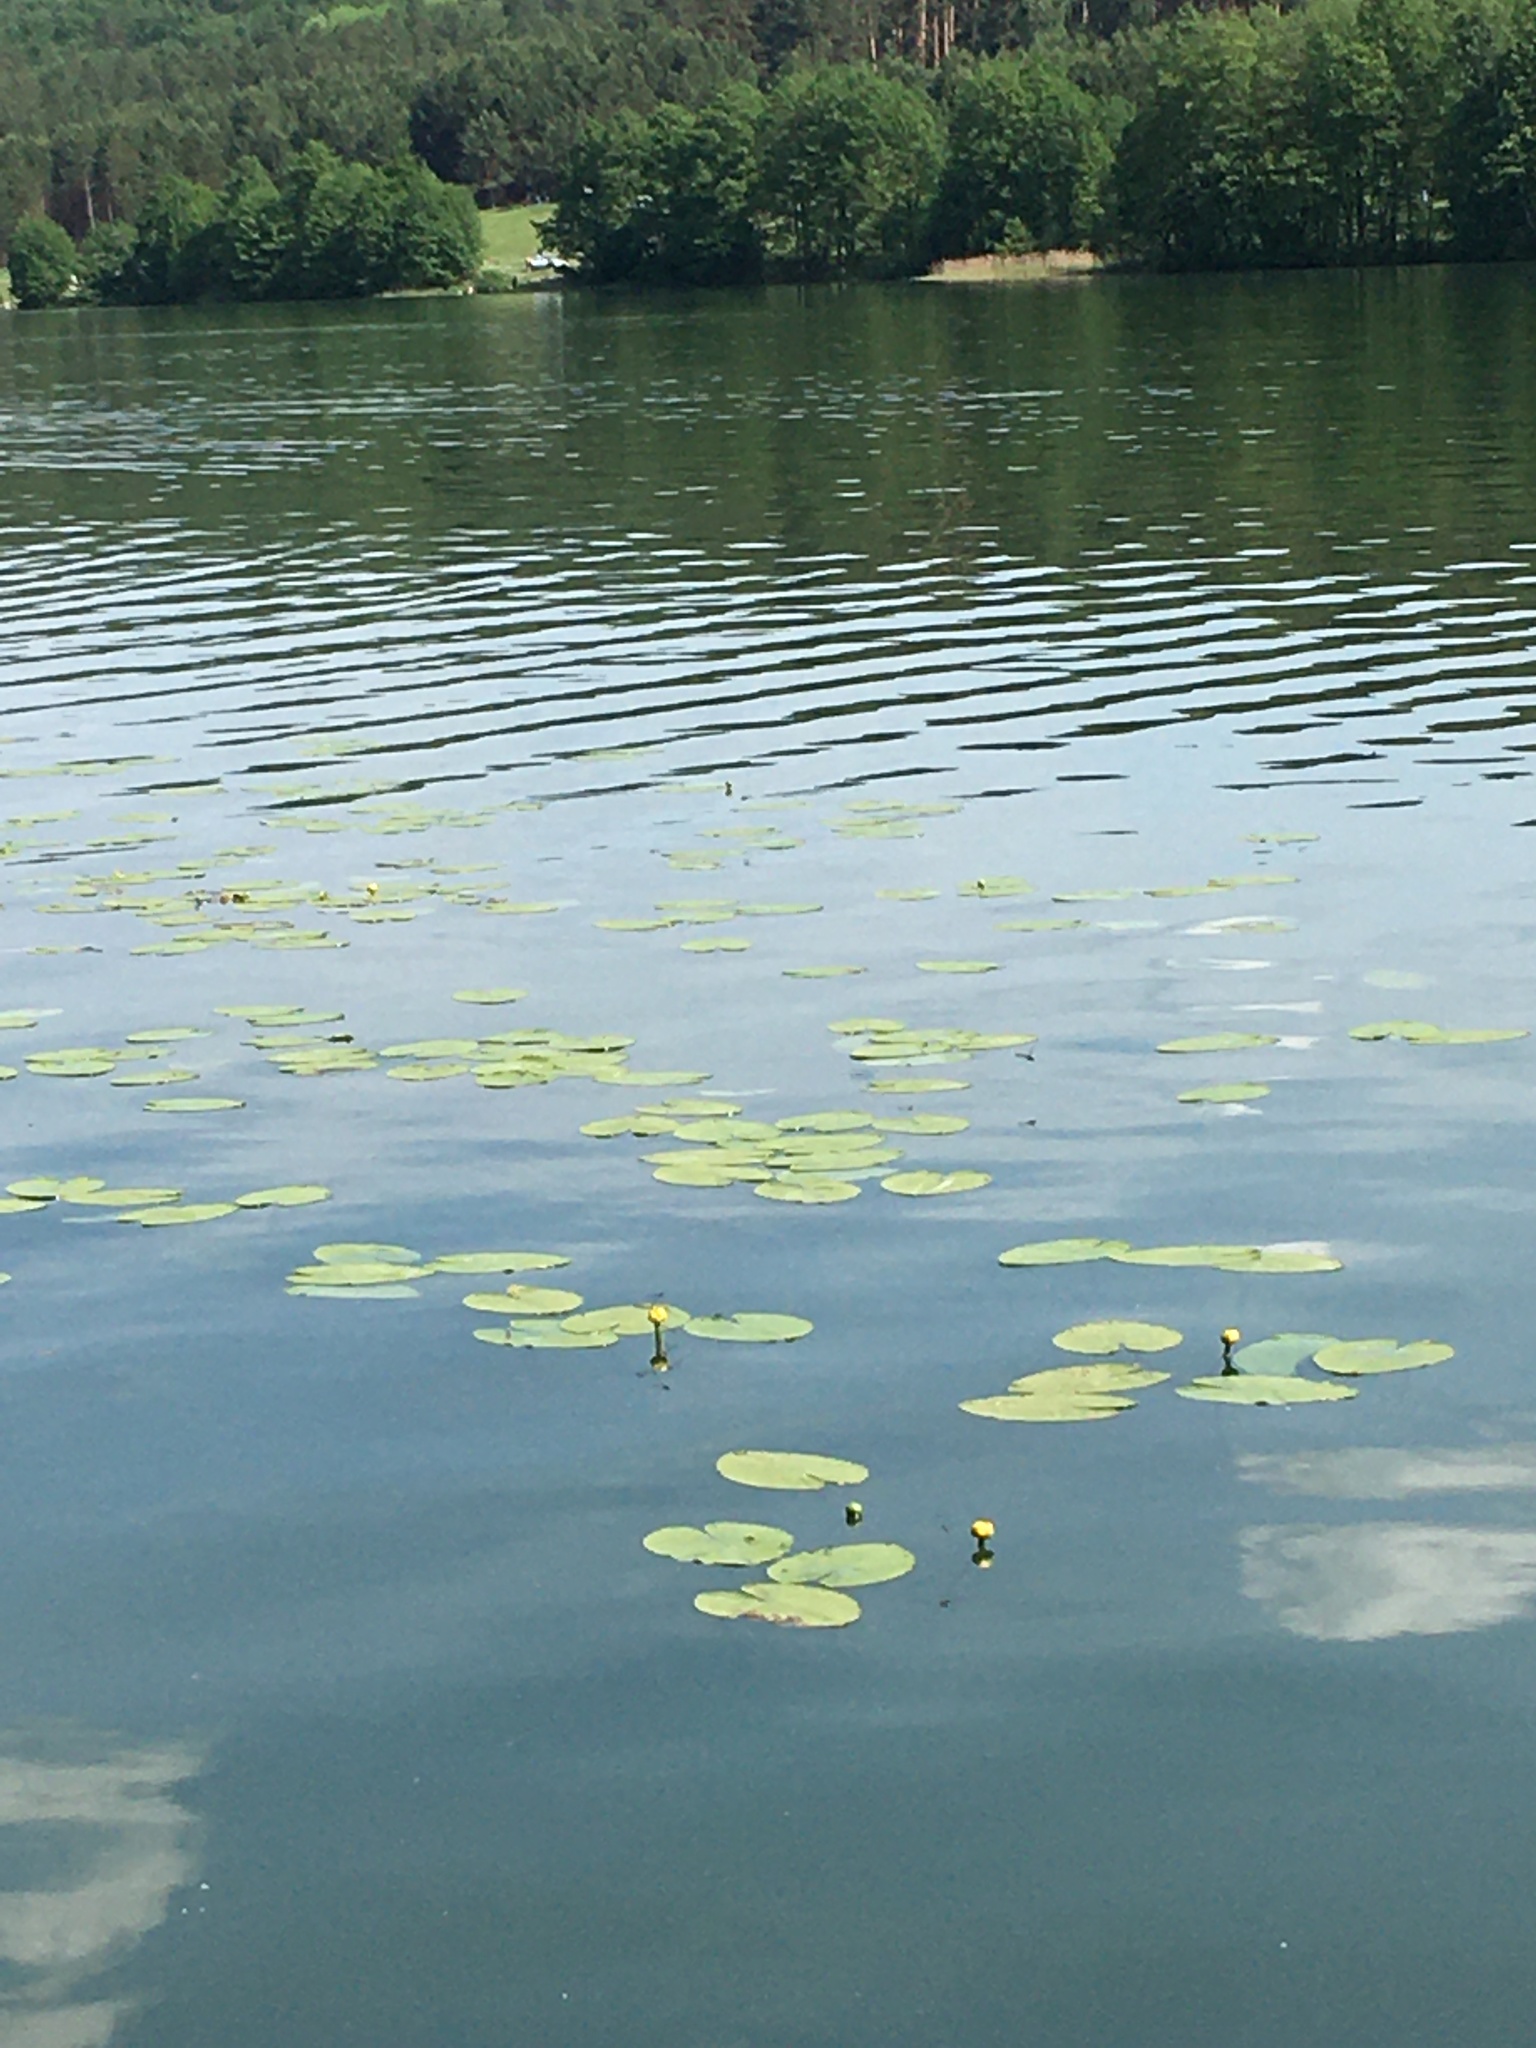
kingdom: Plantae
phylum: Tracheophyta
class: Magnoliopsida
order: Nymphaeales
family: Nymphaeaceae
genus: Nuphar
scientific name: Nuphar lutea
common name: Yellow water-lily
